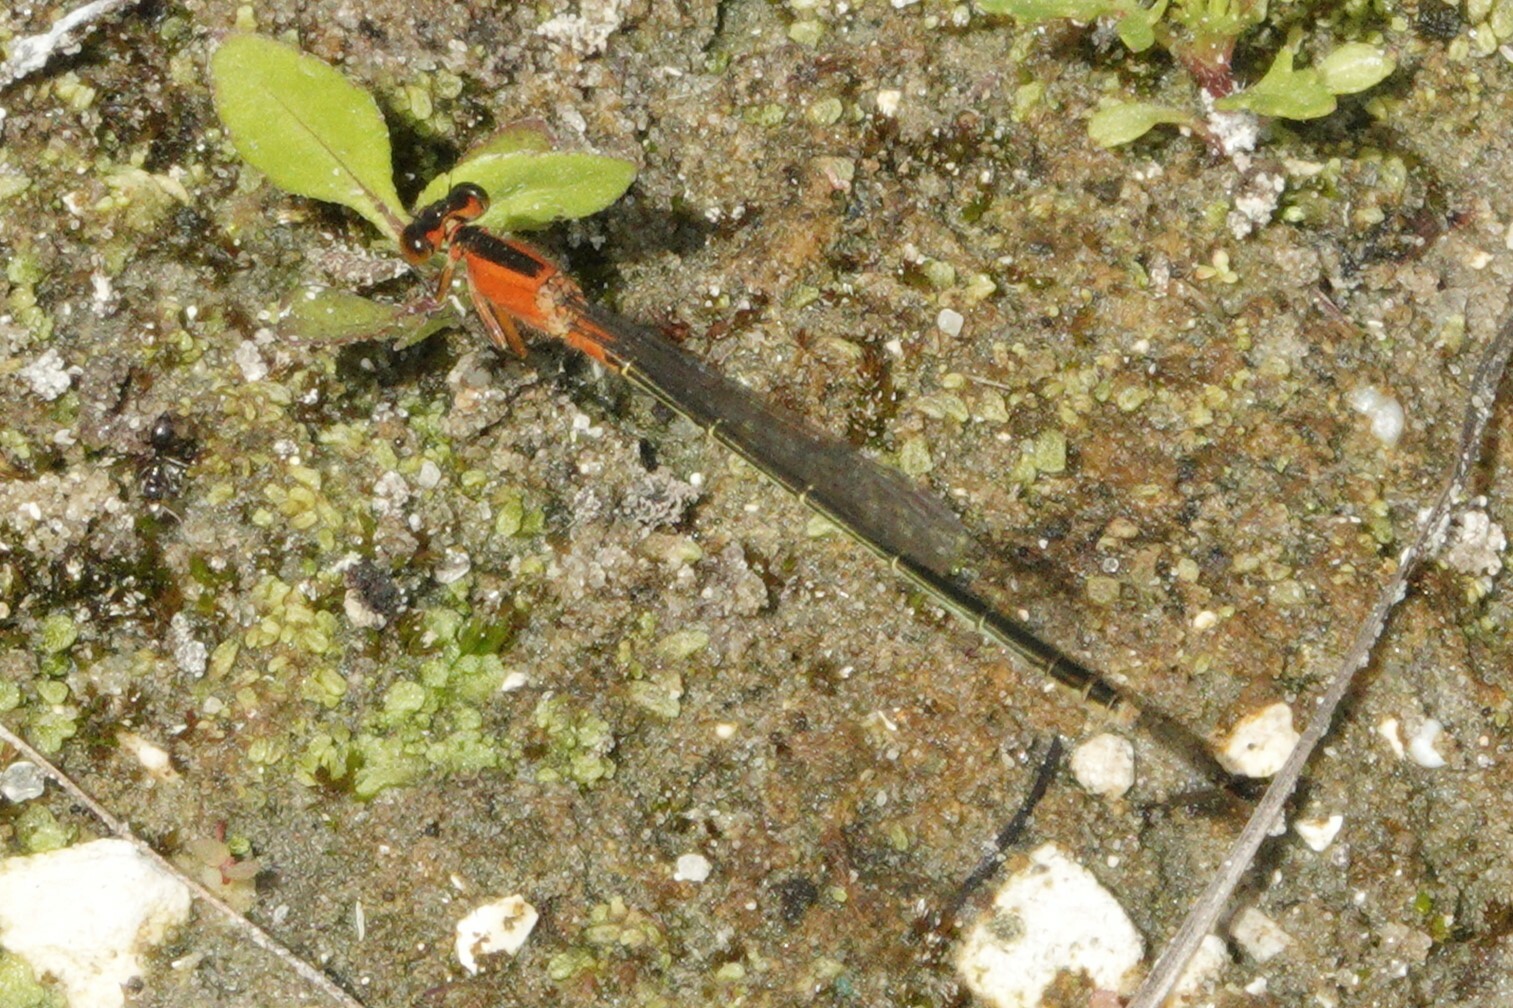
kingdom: Animalia
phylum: Arthropoda
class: Insecta
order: Odonata
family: Coenagrionidae
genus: Ischnura
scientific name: Ischnura ramburii
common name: Rambur's forktail
